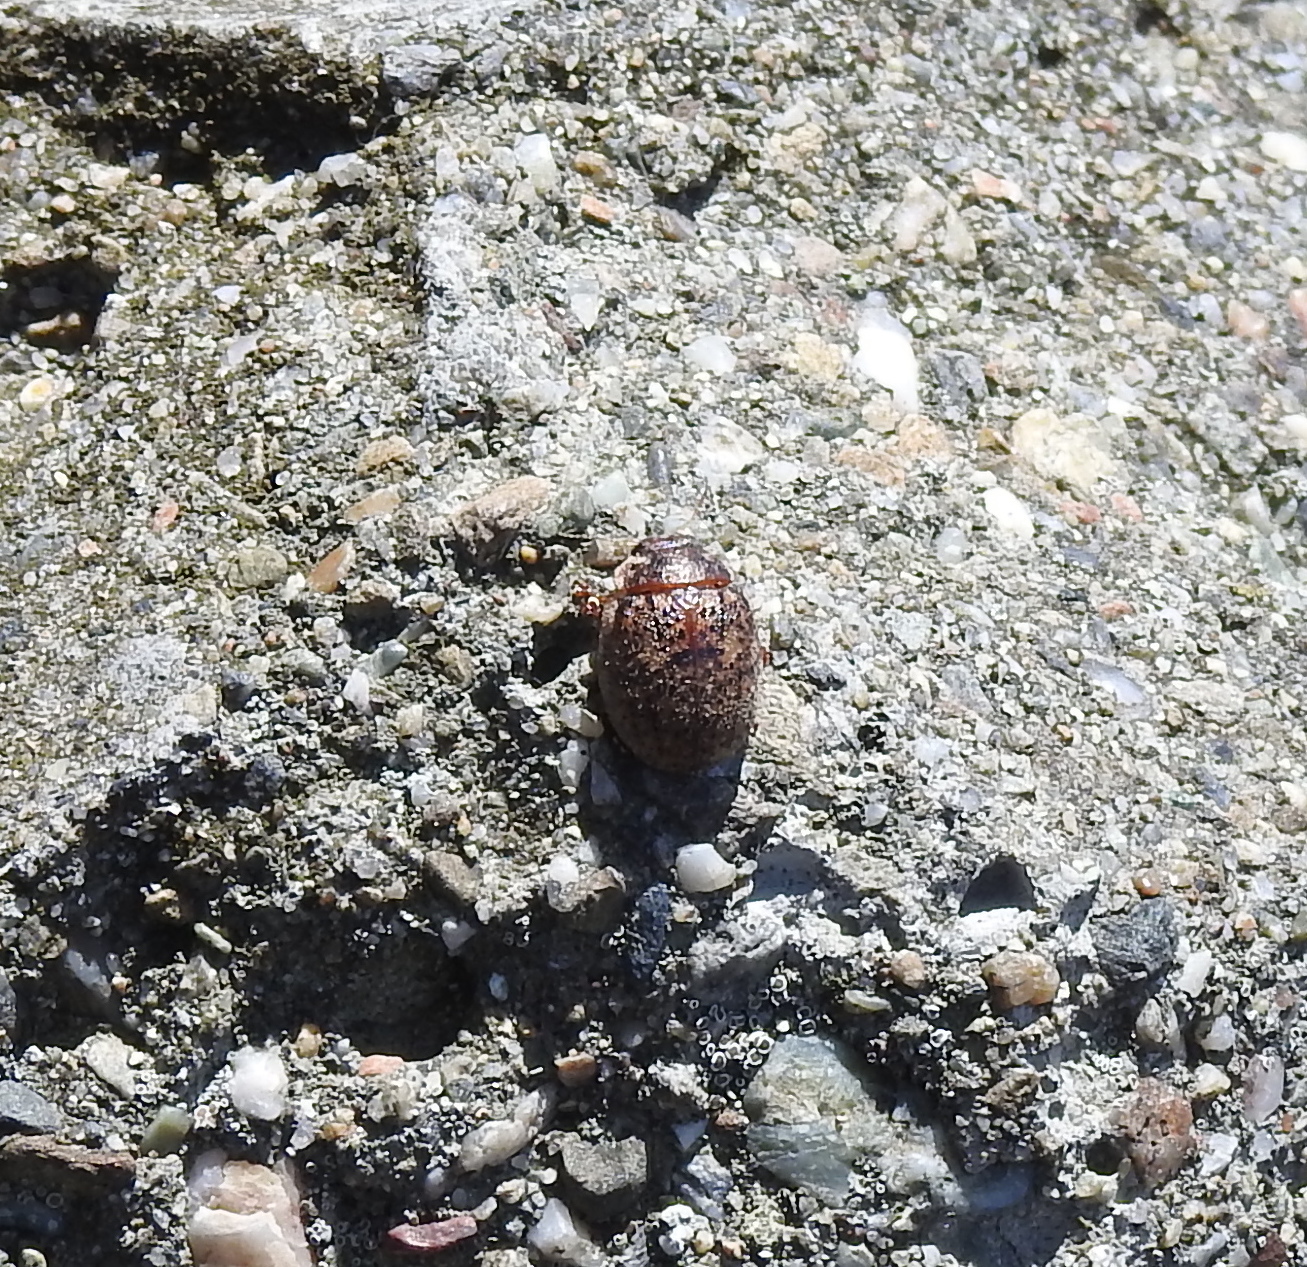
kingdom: Animalia
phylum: Arthropoda
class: Insecta
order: Coleoptera
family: Chrysomelidae
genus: Trachymela
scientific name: Trachymela sloanei
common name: Australian tortoise beetle
